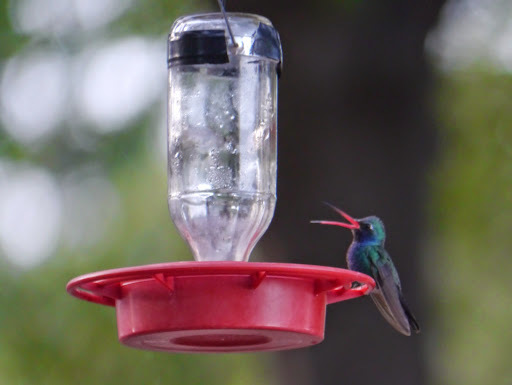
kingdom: Animalia
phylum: Chordata
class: Aves
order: Apodiformes
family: Trochilidae
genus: Cynanthus
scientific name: Cynanthus latirostris
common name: Broad-billed hummingbird
